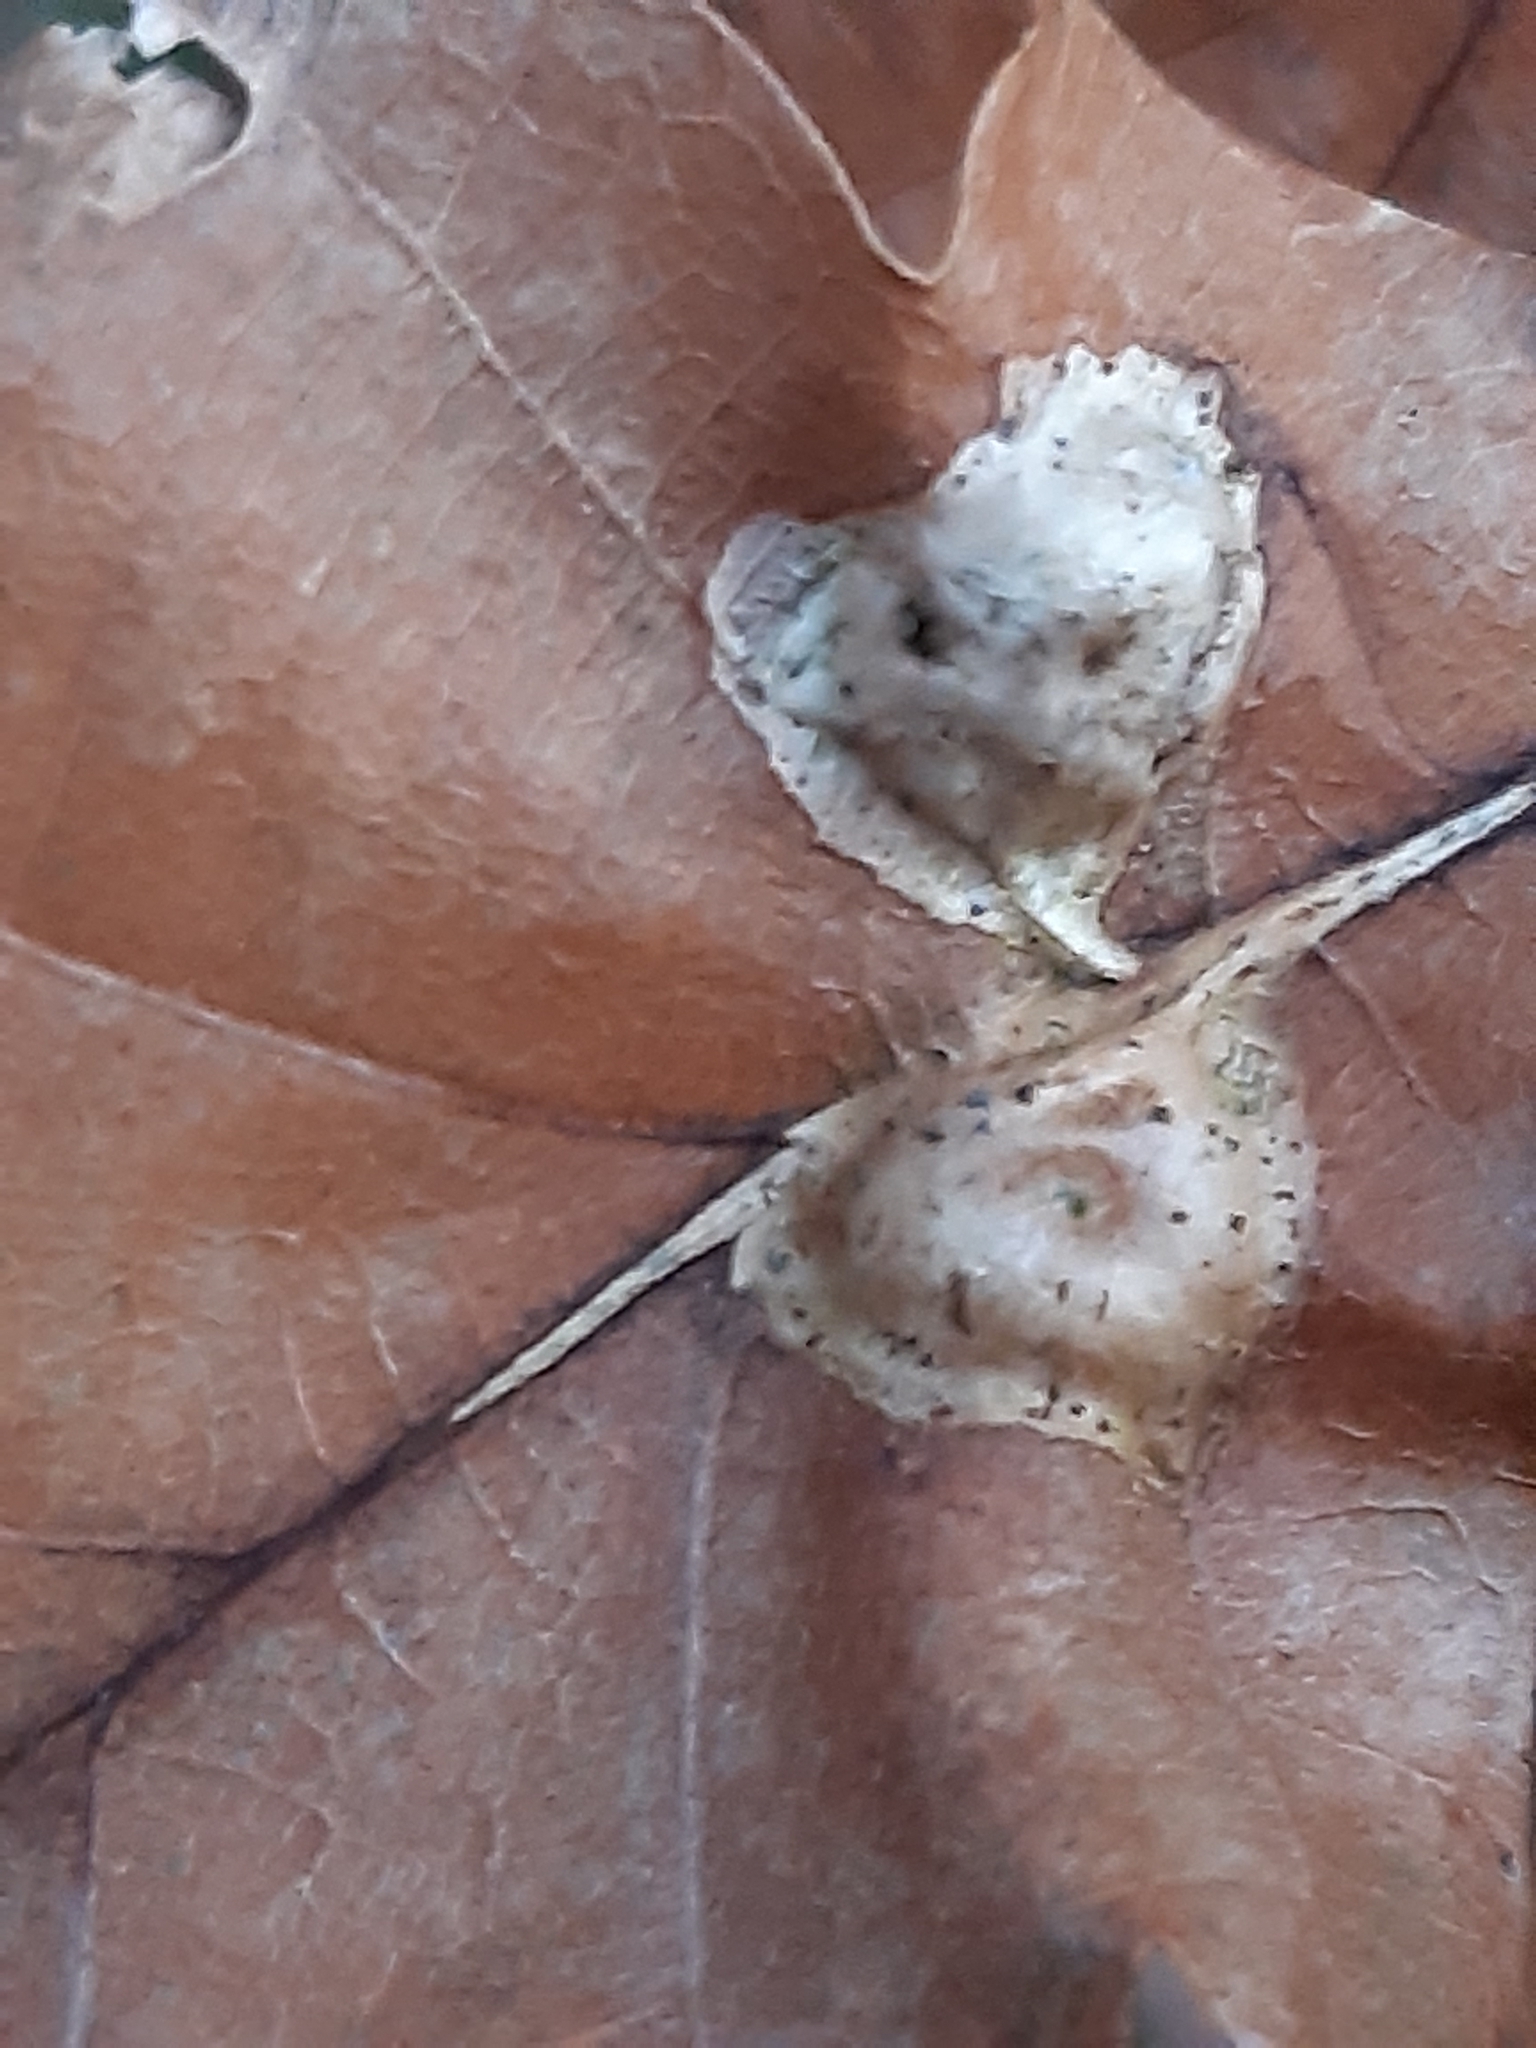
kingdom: Animalia
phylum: Arthropoda
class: Insecta
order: Hymenoptera
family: Cynipidae
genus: Andricus
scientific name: Andricus curvator
